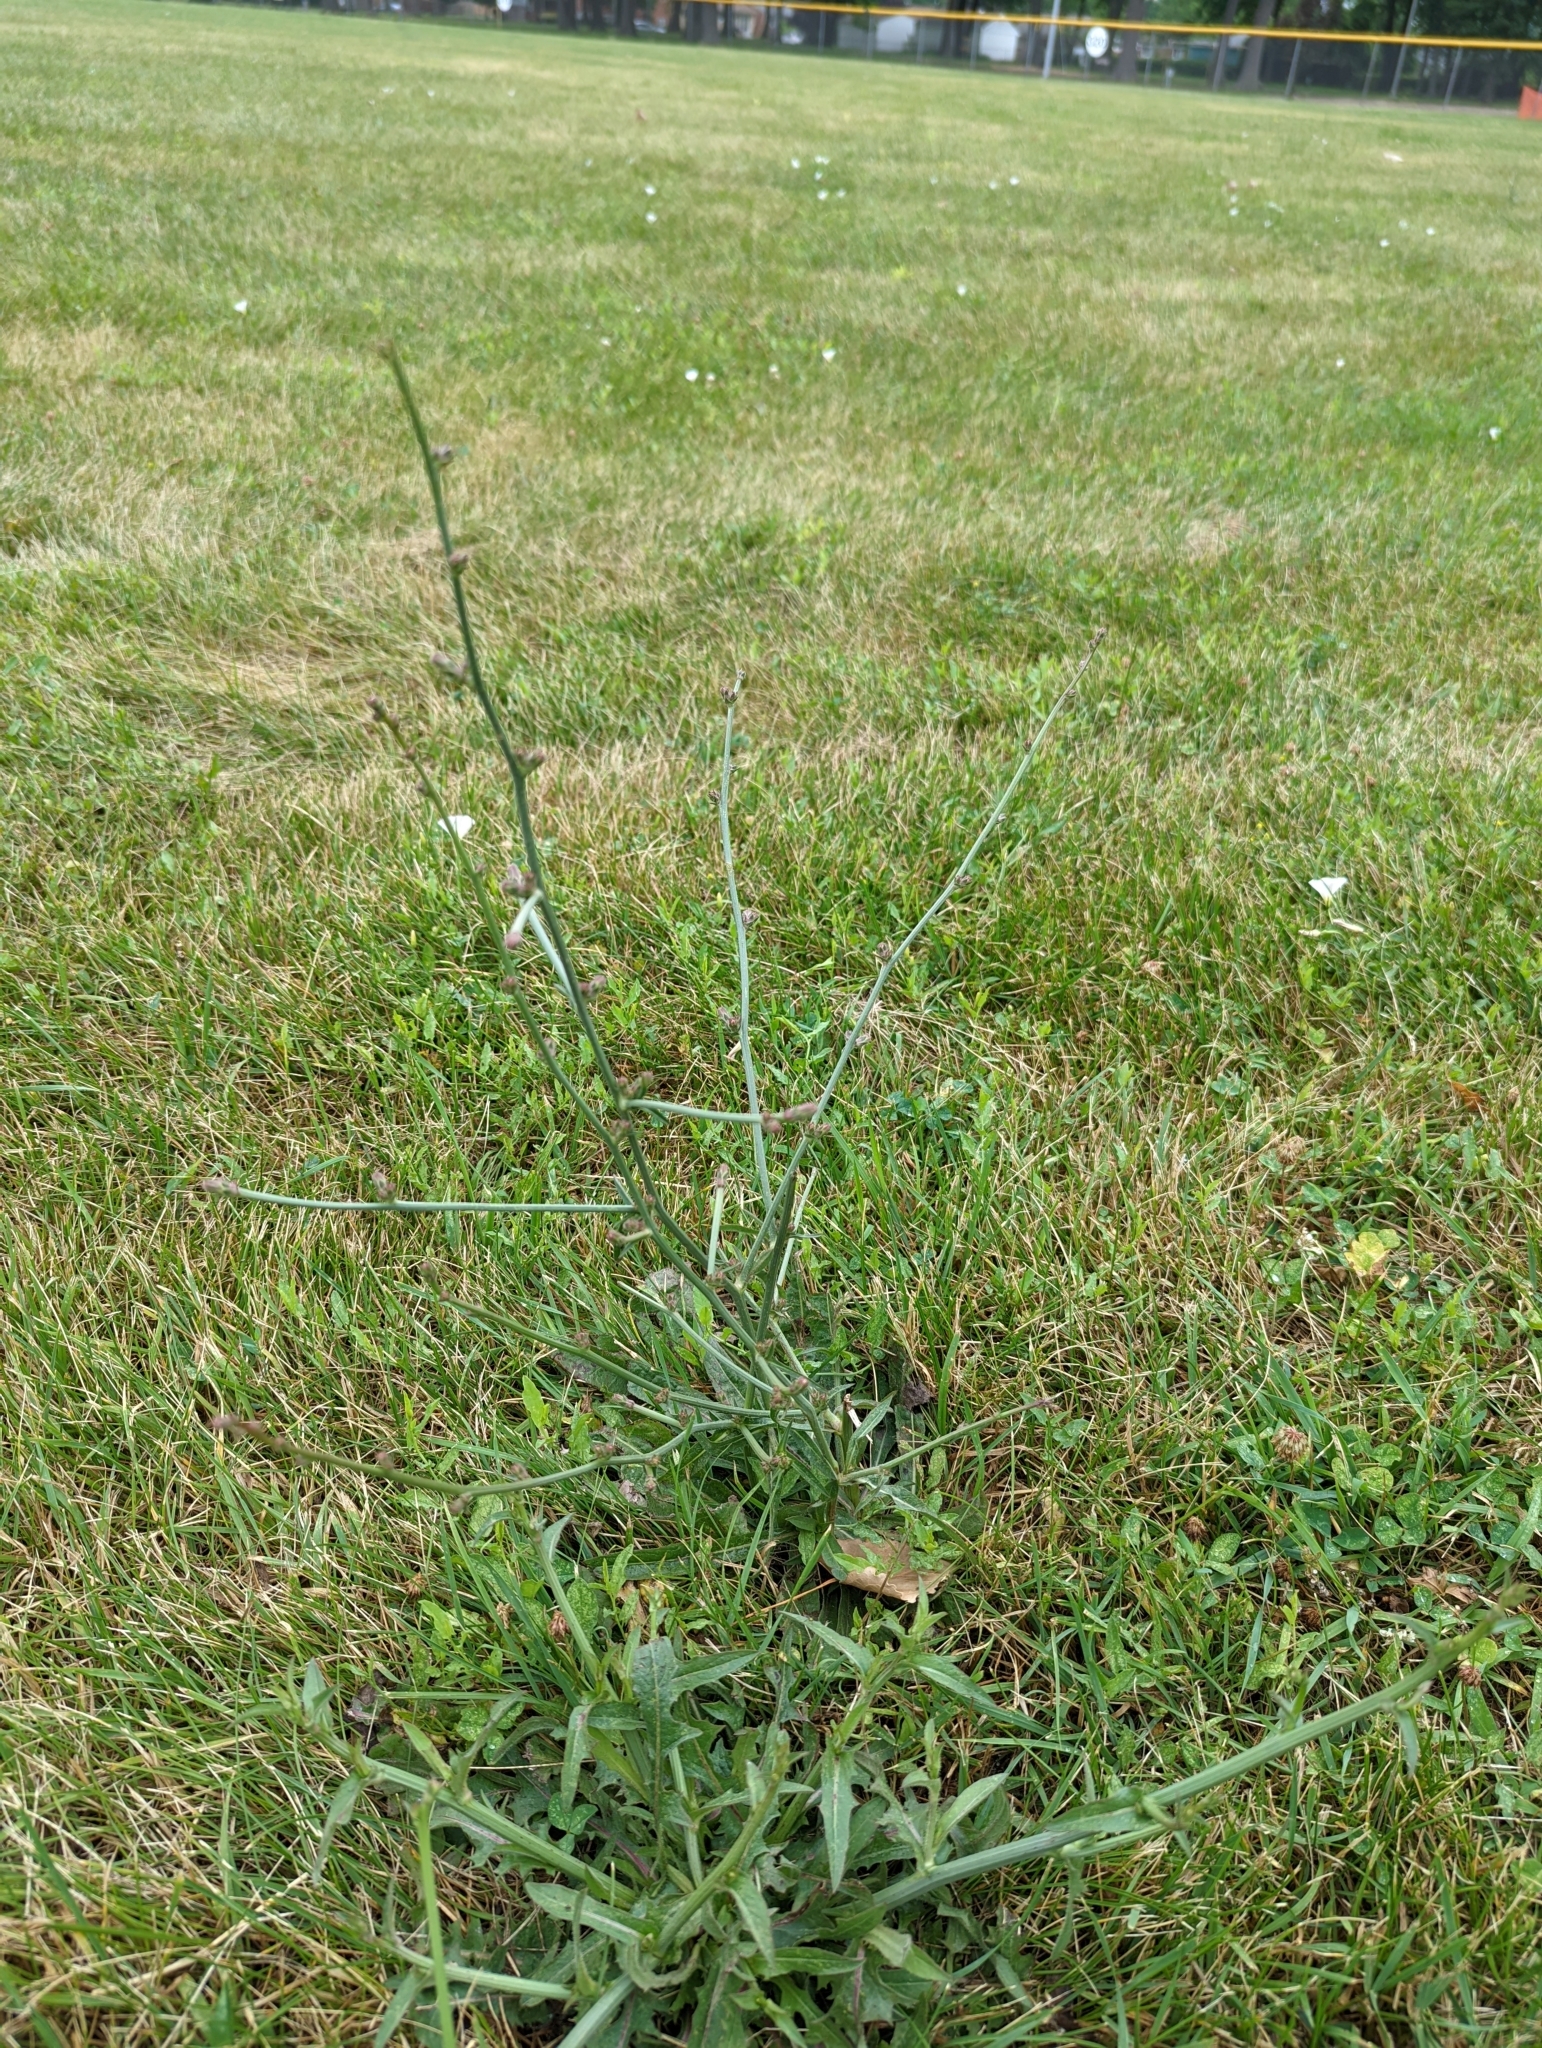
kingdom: Plantae
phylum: Tracheophyta
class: Magnoliopsida
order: Asterales
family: Asteraceae
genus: Cichorium
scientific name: Cichorium intybus
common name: Chicory
